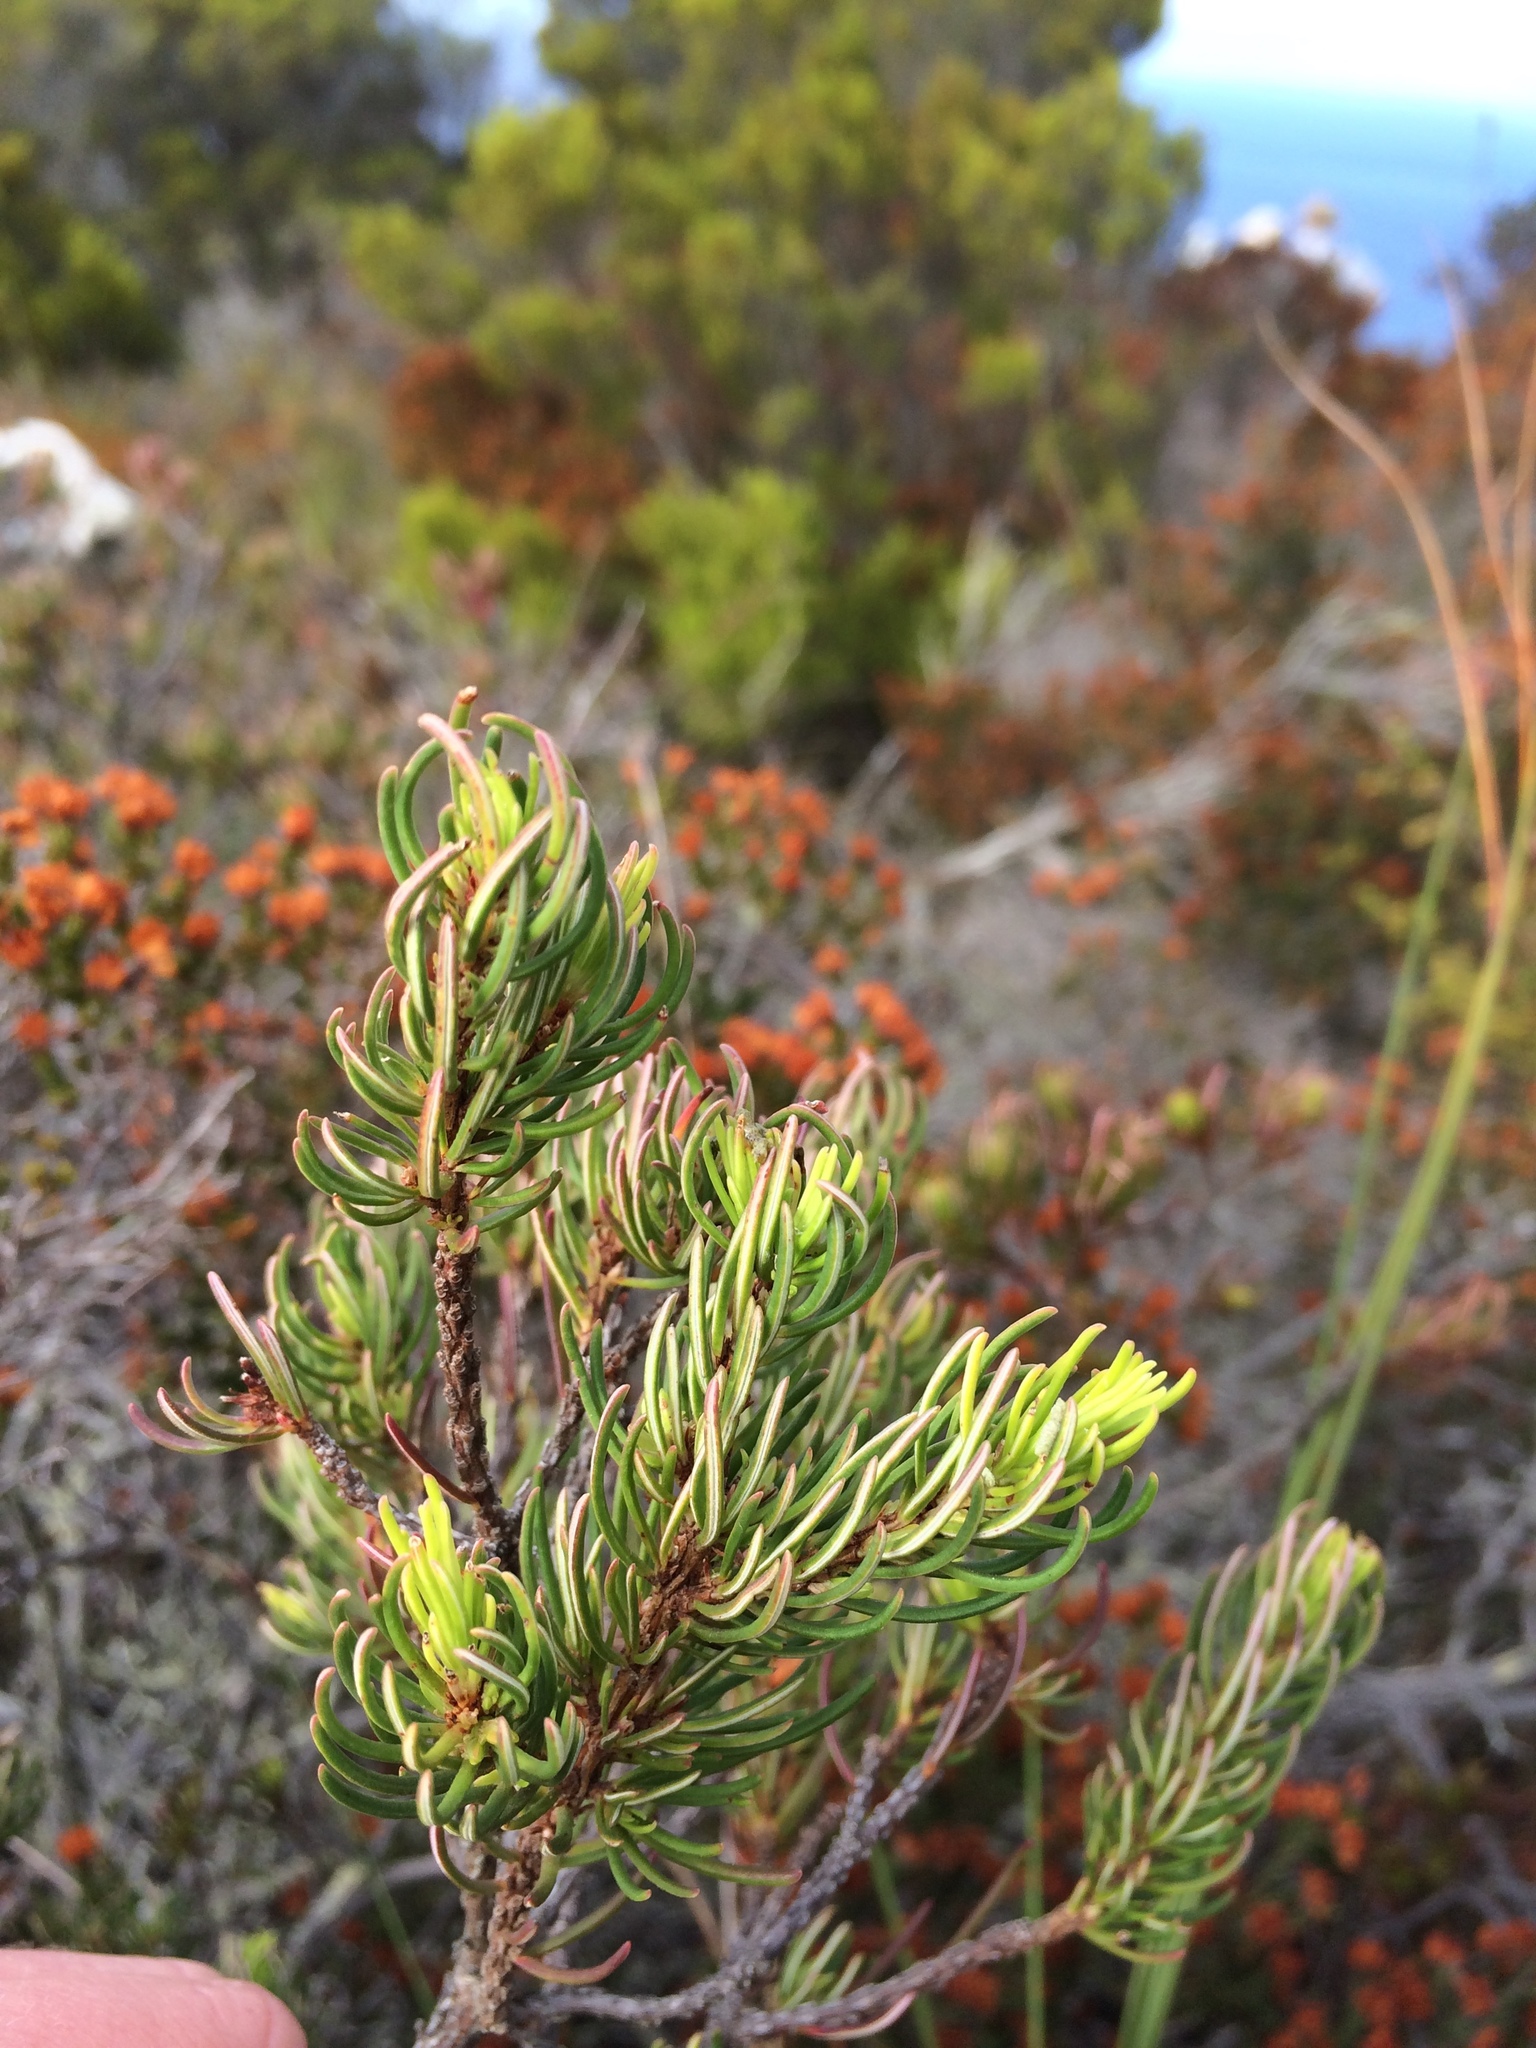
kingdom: Plantae
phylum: Tracheophyta
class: Magnoliopsida
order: Ericales
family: Ericaceae
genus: Erica
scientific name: Erica plukenetii
